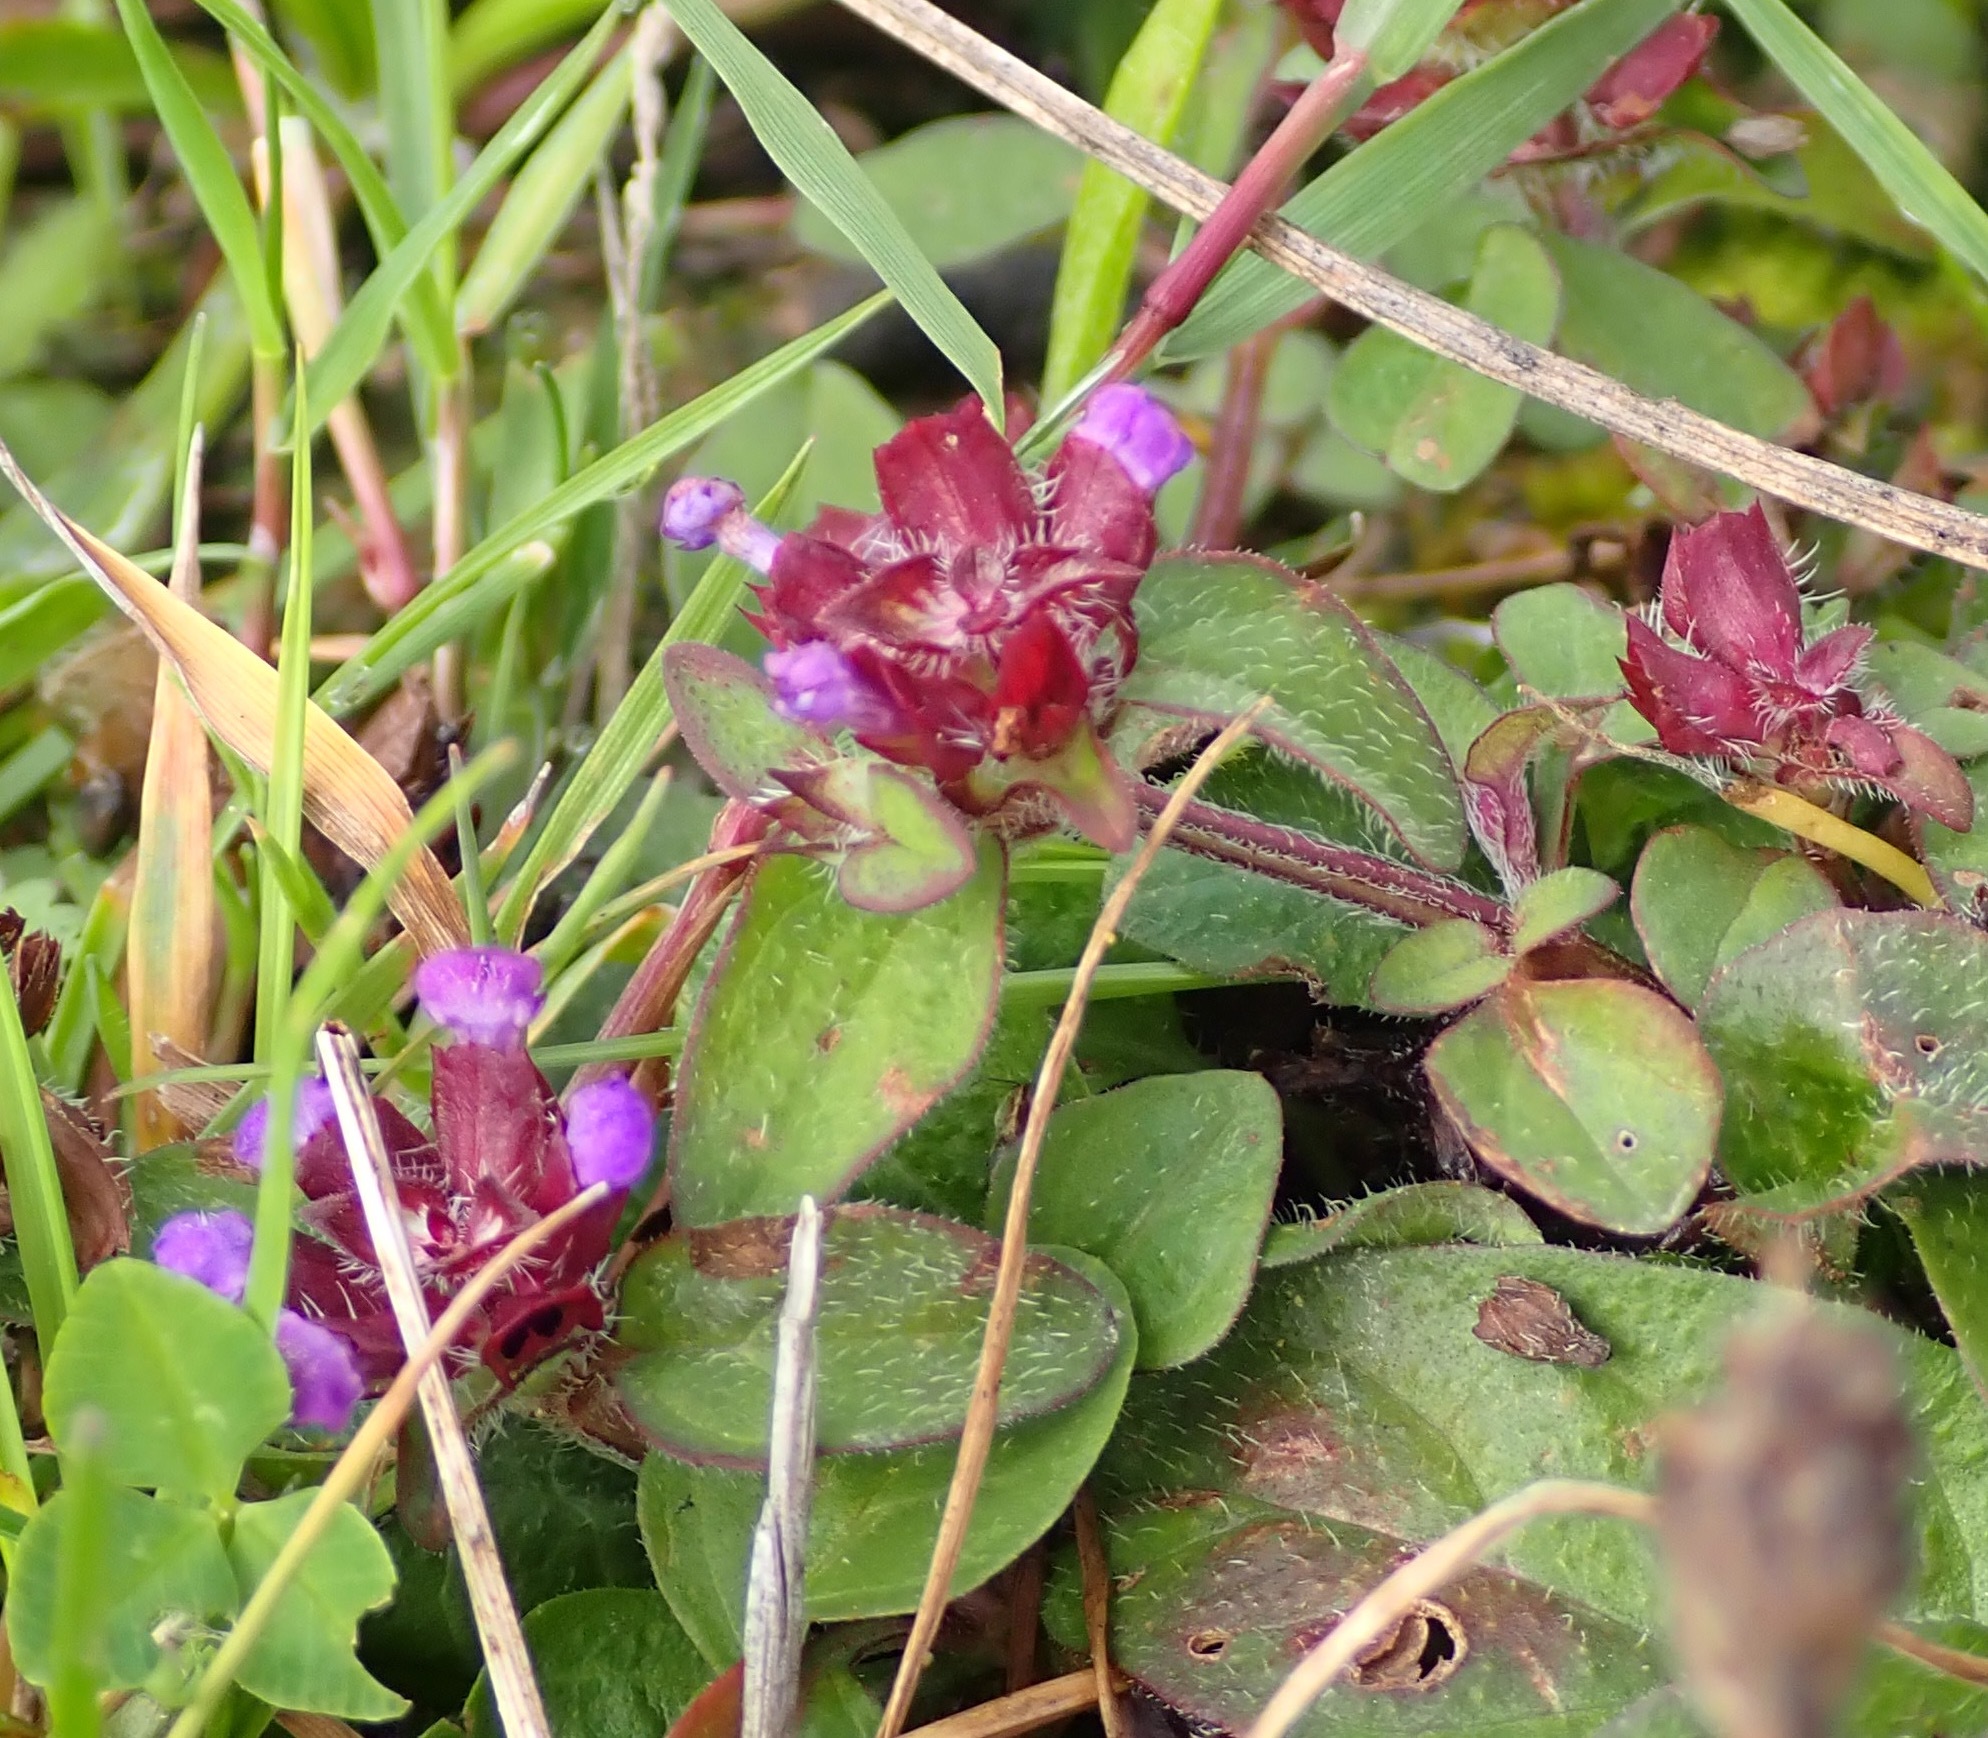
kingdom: Plantae
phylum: Tracheophyta
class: Magnoliopsida
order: Lamiales
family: Lamiaceae
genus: Prunella
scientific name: Prunella vulgaris
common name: Heal-all
